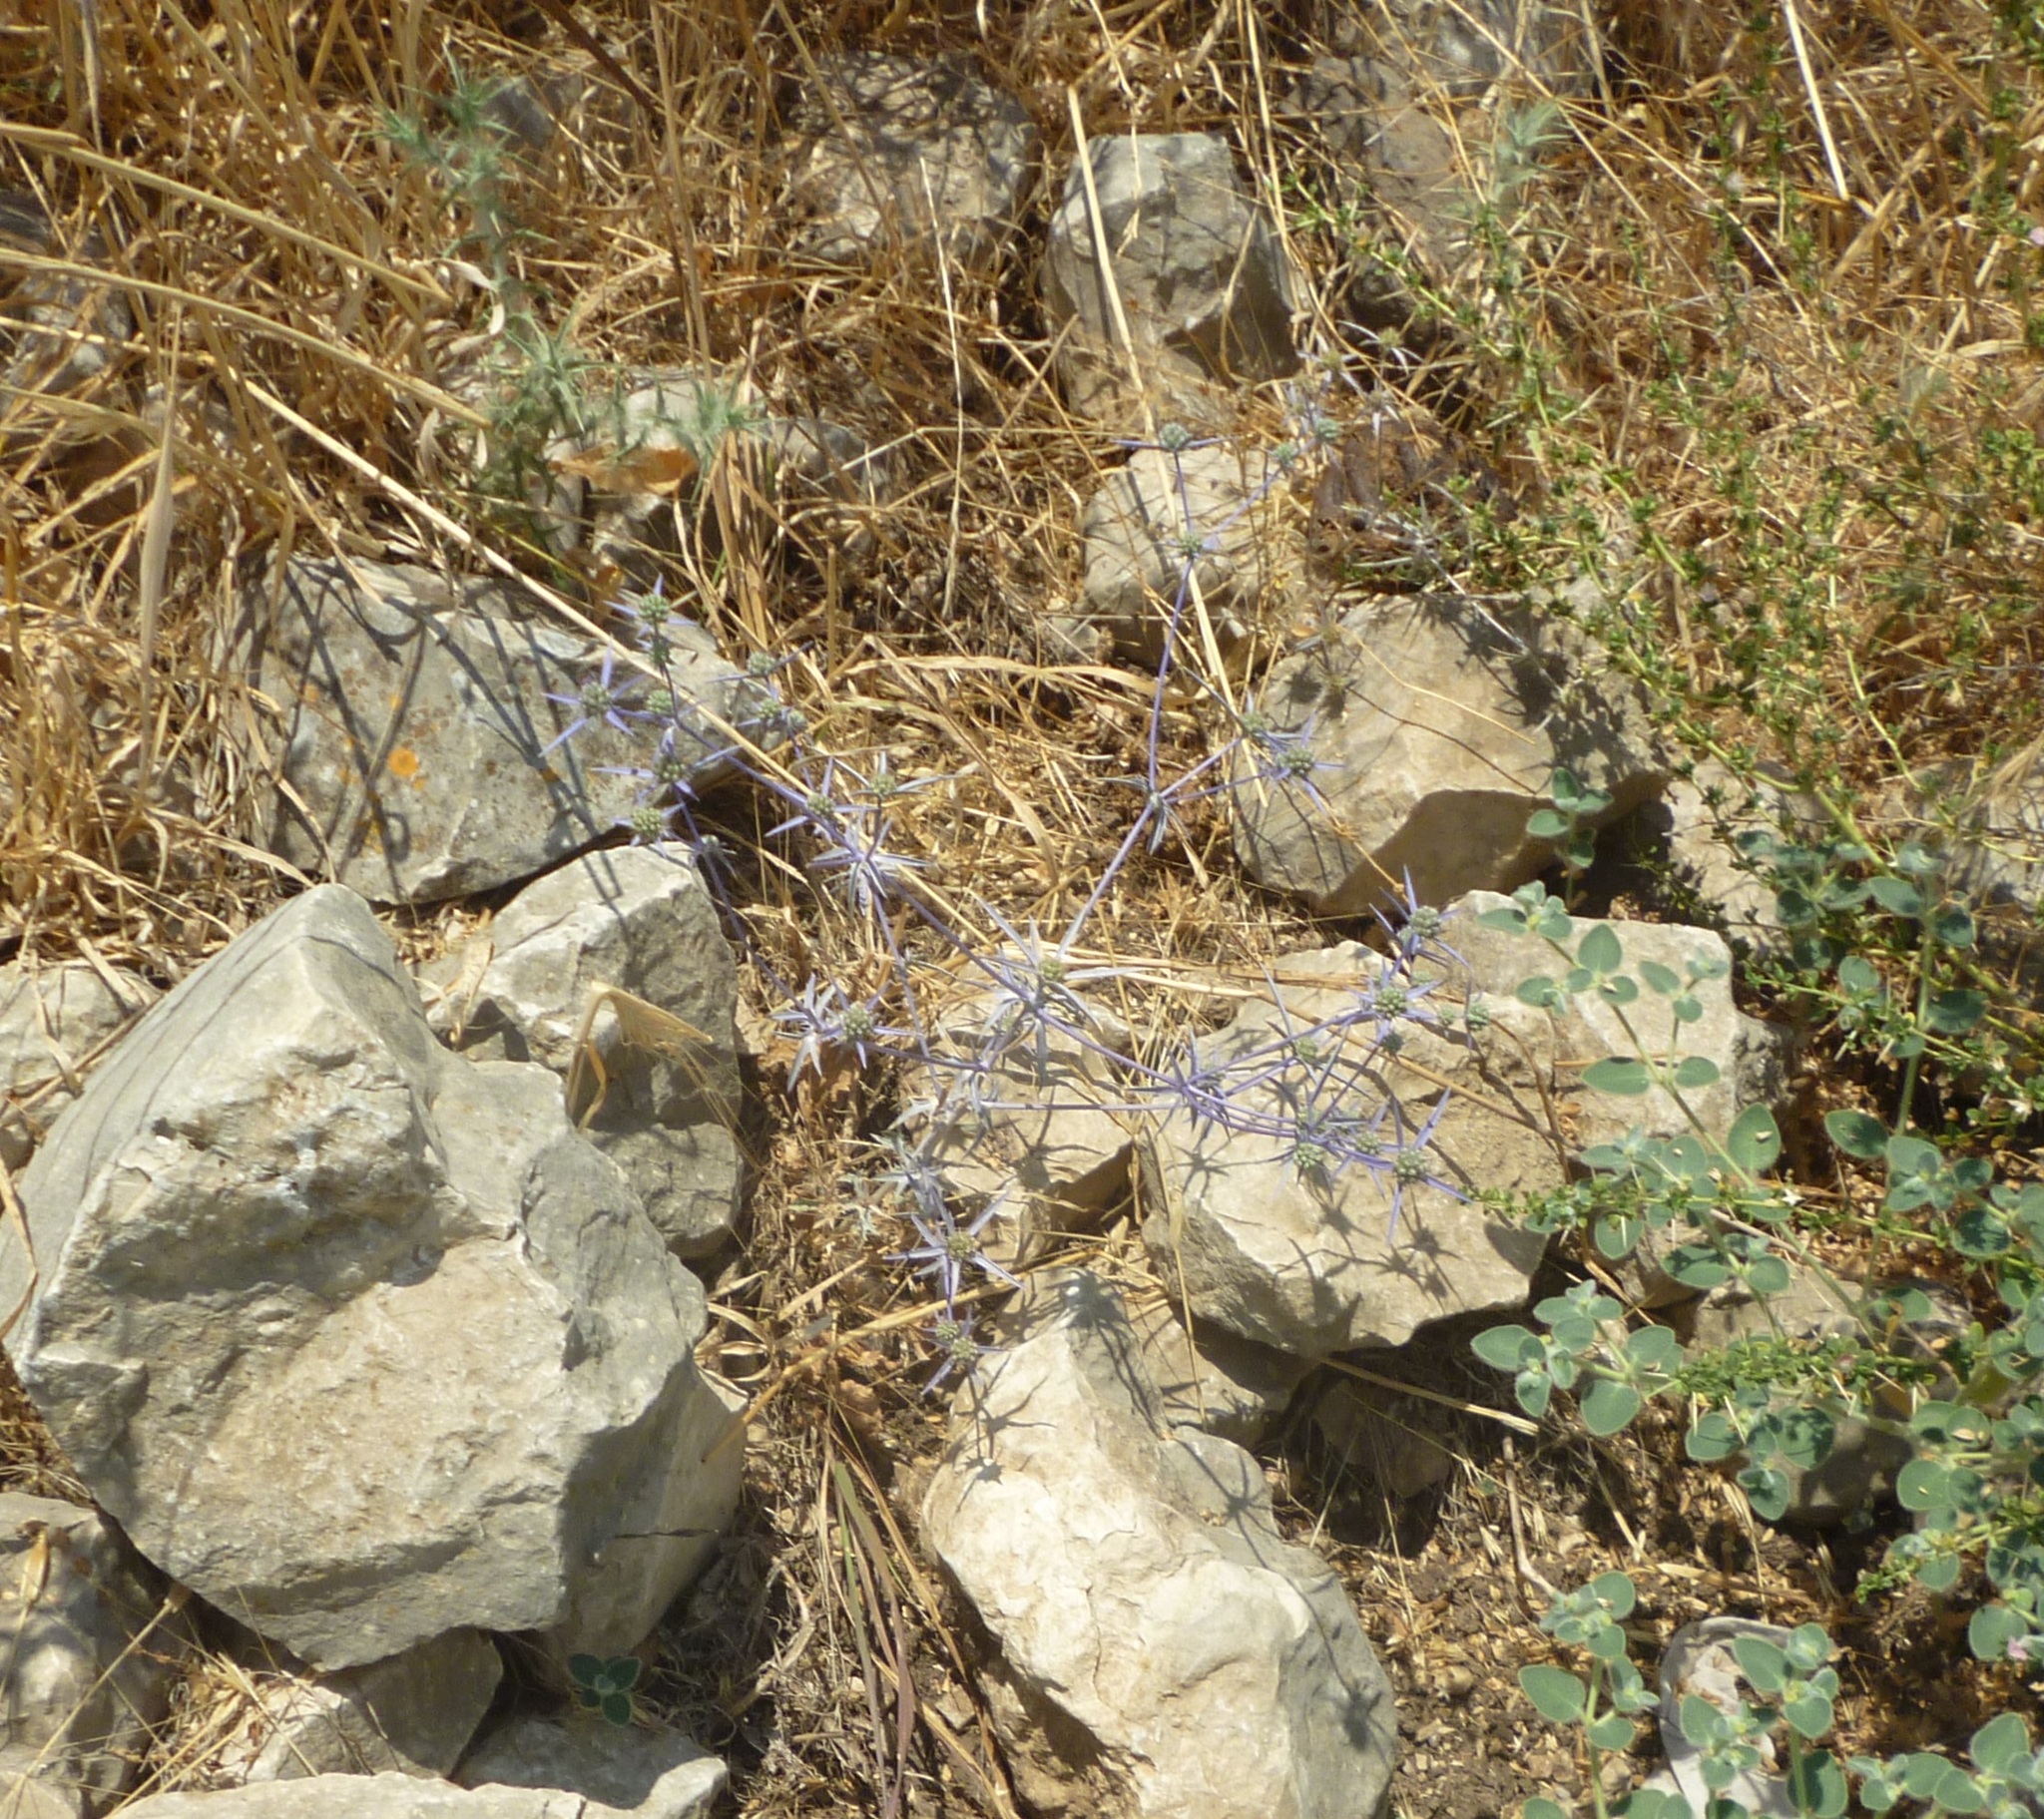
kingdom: Plantae
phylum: Tracheophyta
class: Magnoliopsida
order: Apiales
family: Apiaceae
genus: Eryngium
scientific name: Eryngium creticum
